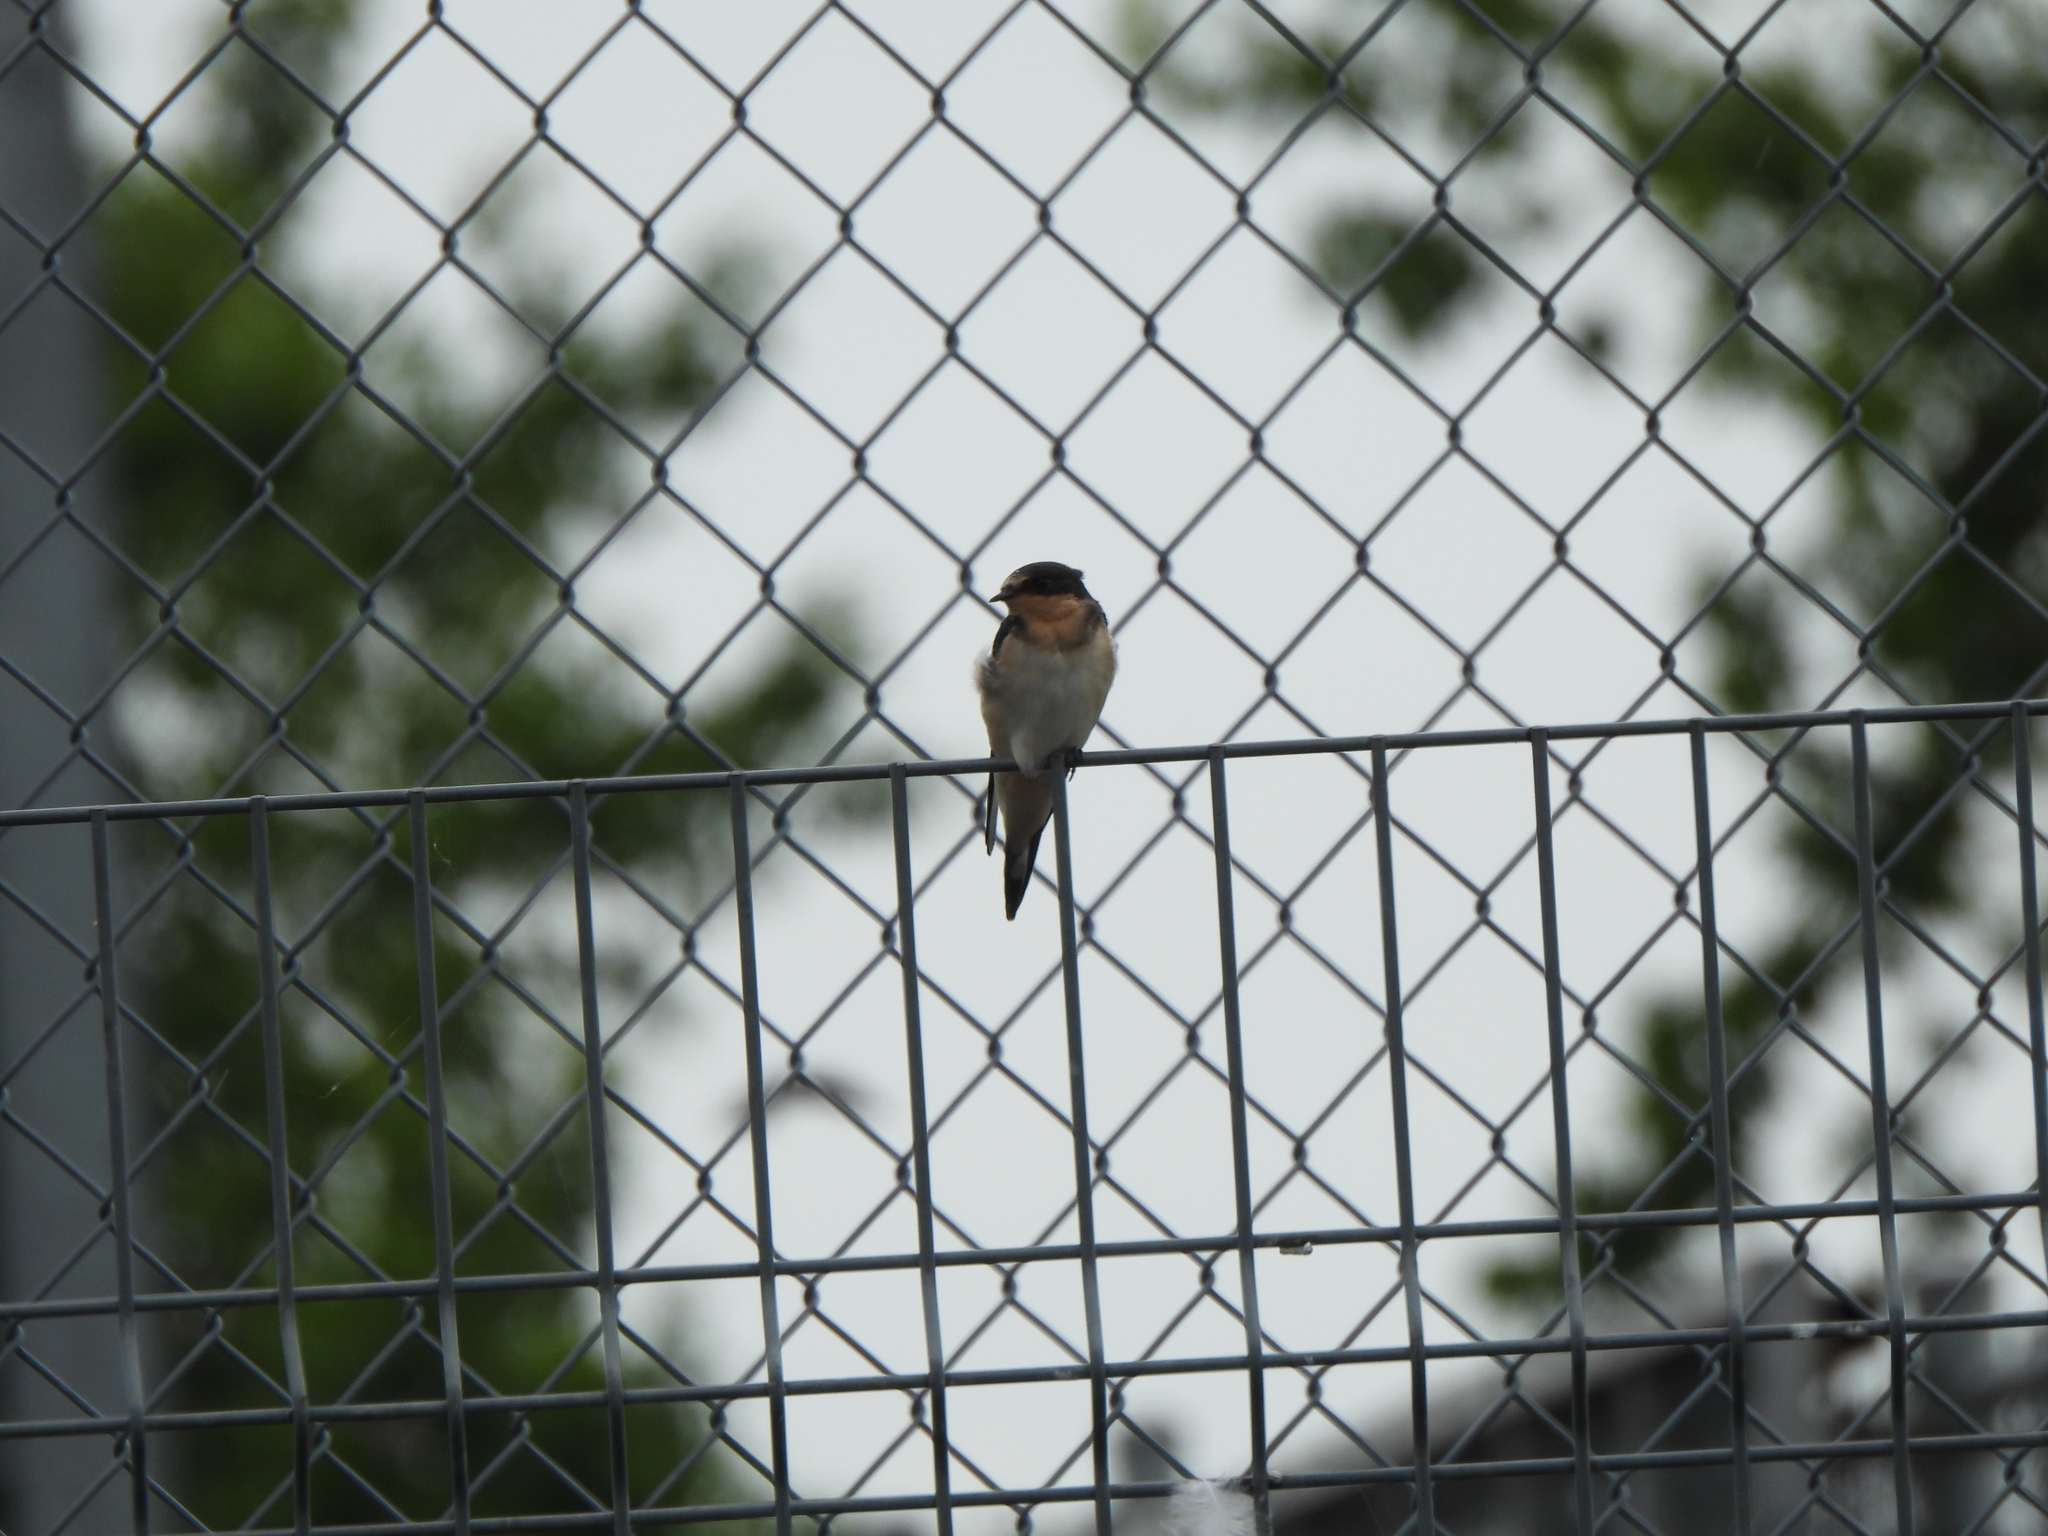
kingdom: Animalia
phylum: Chordata
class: Aves
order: Passeriformes
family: Hirundinidae
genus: Hirundo
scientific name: Hirundo rustica
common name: Barn swallow
